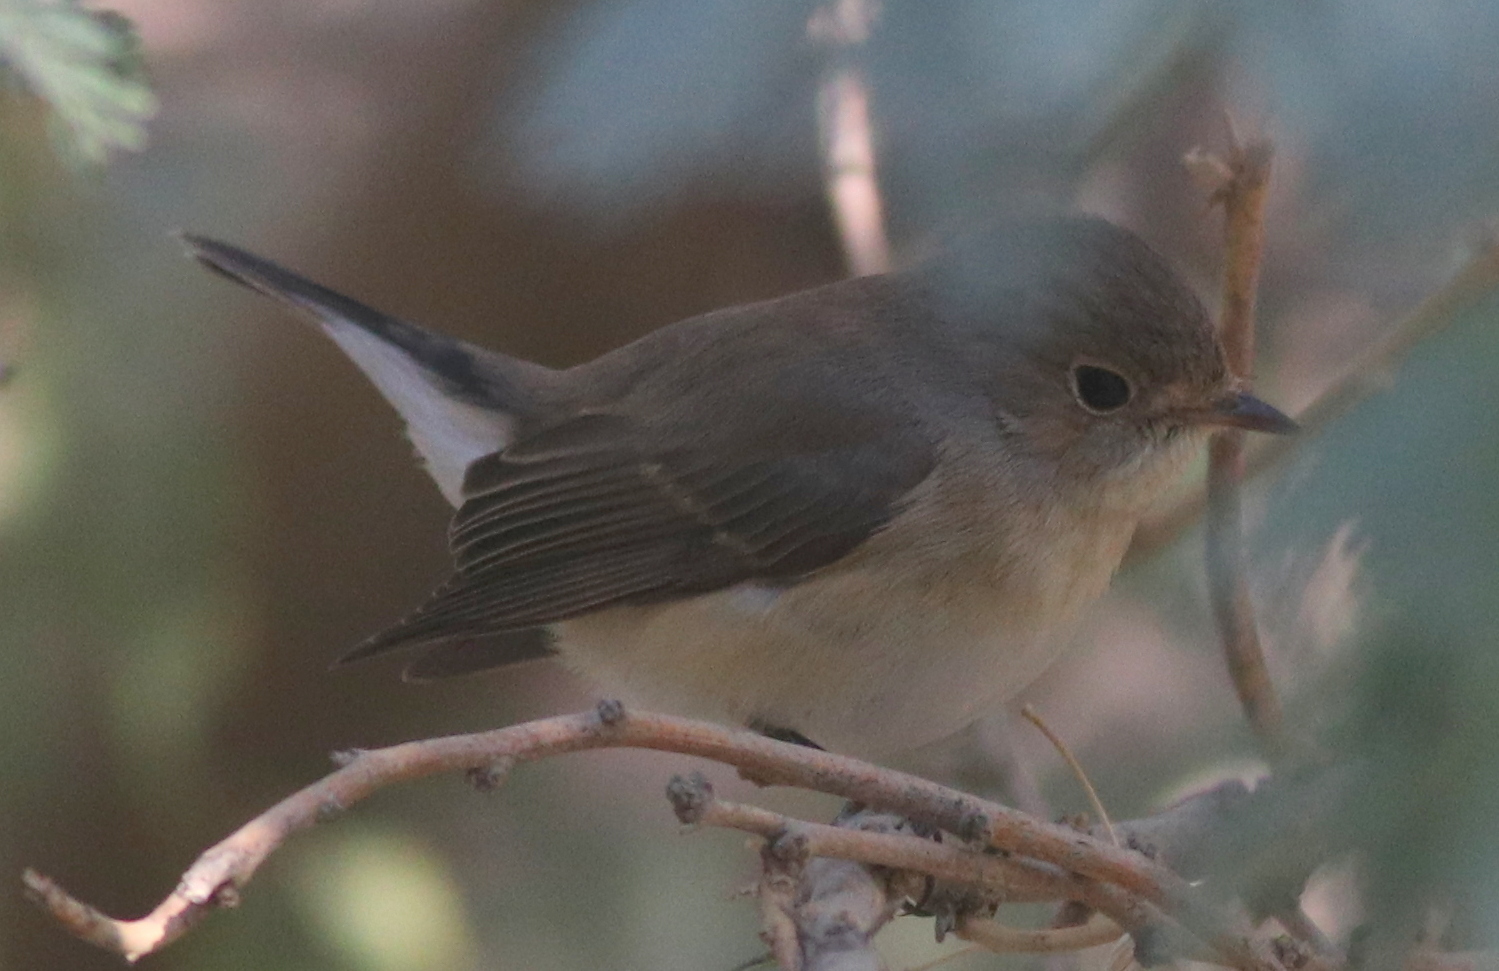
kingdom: Animalia
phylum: Chordata
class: Aves
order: Passeriformes
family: Muscicapidae
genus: Ficedula
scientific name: Ficedula parva
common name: Red-breasted flycatcher
